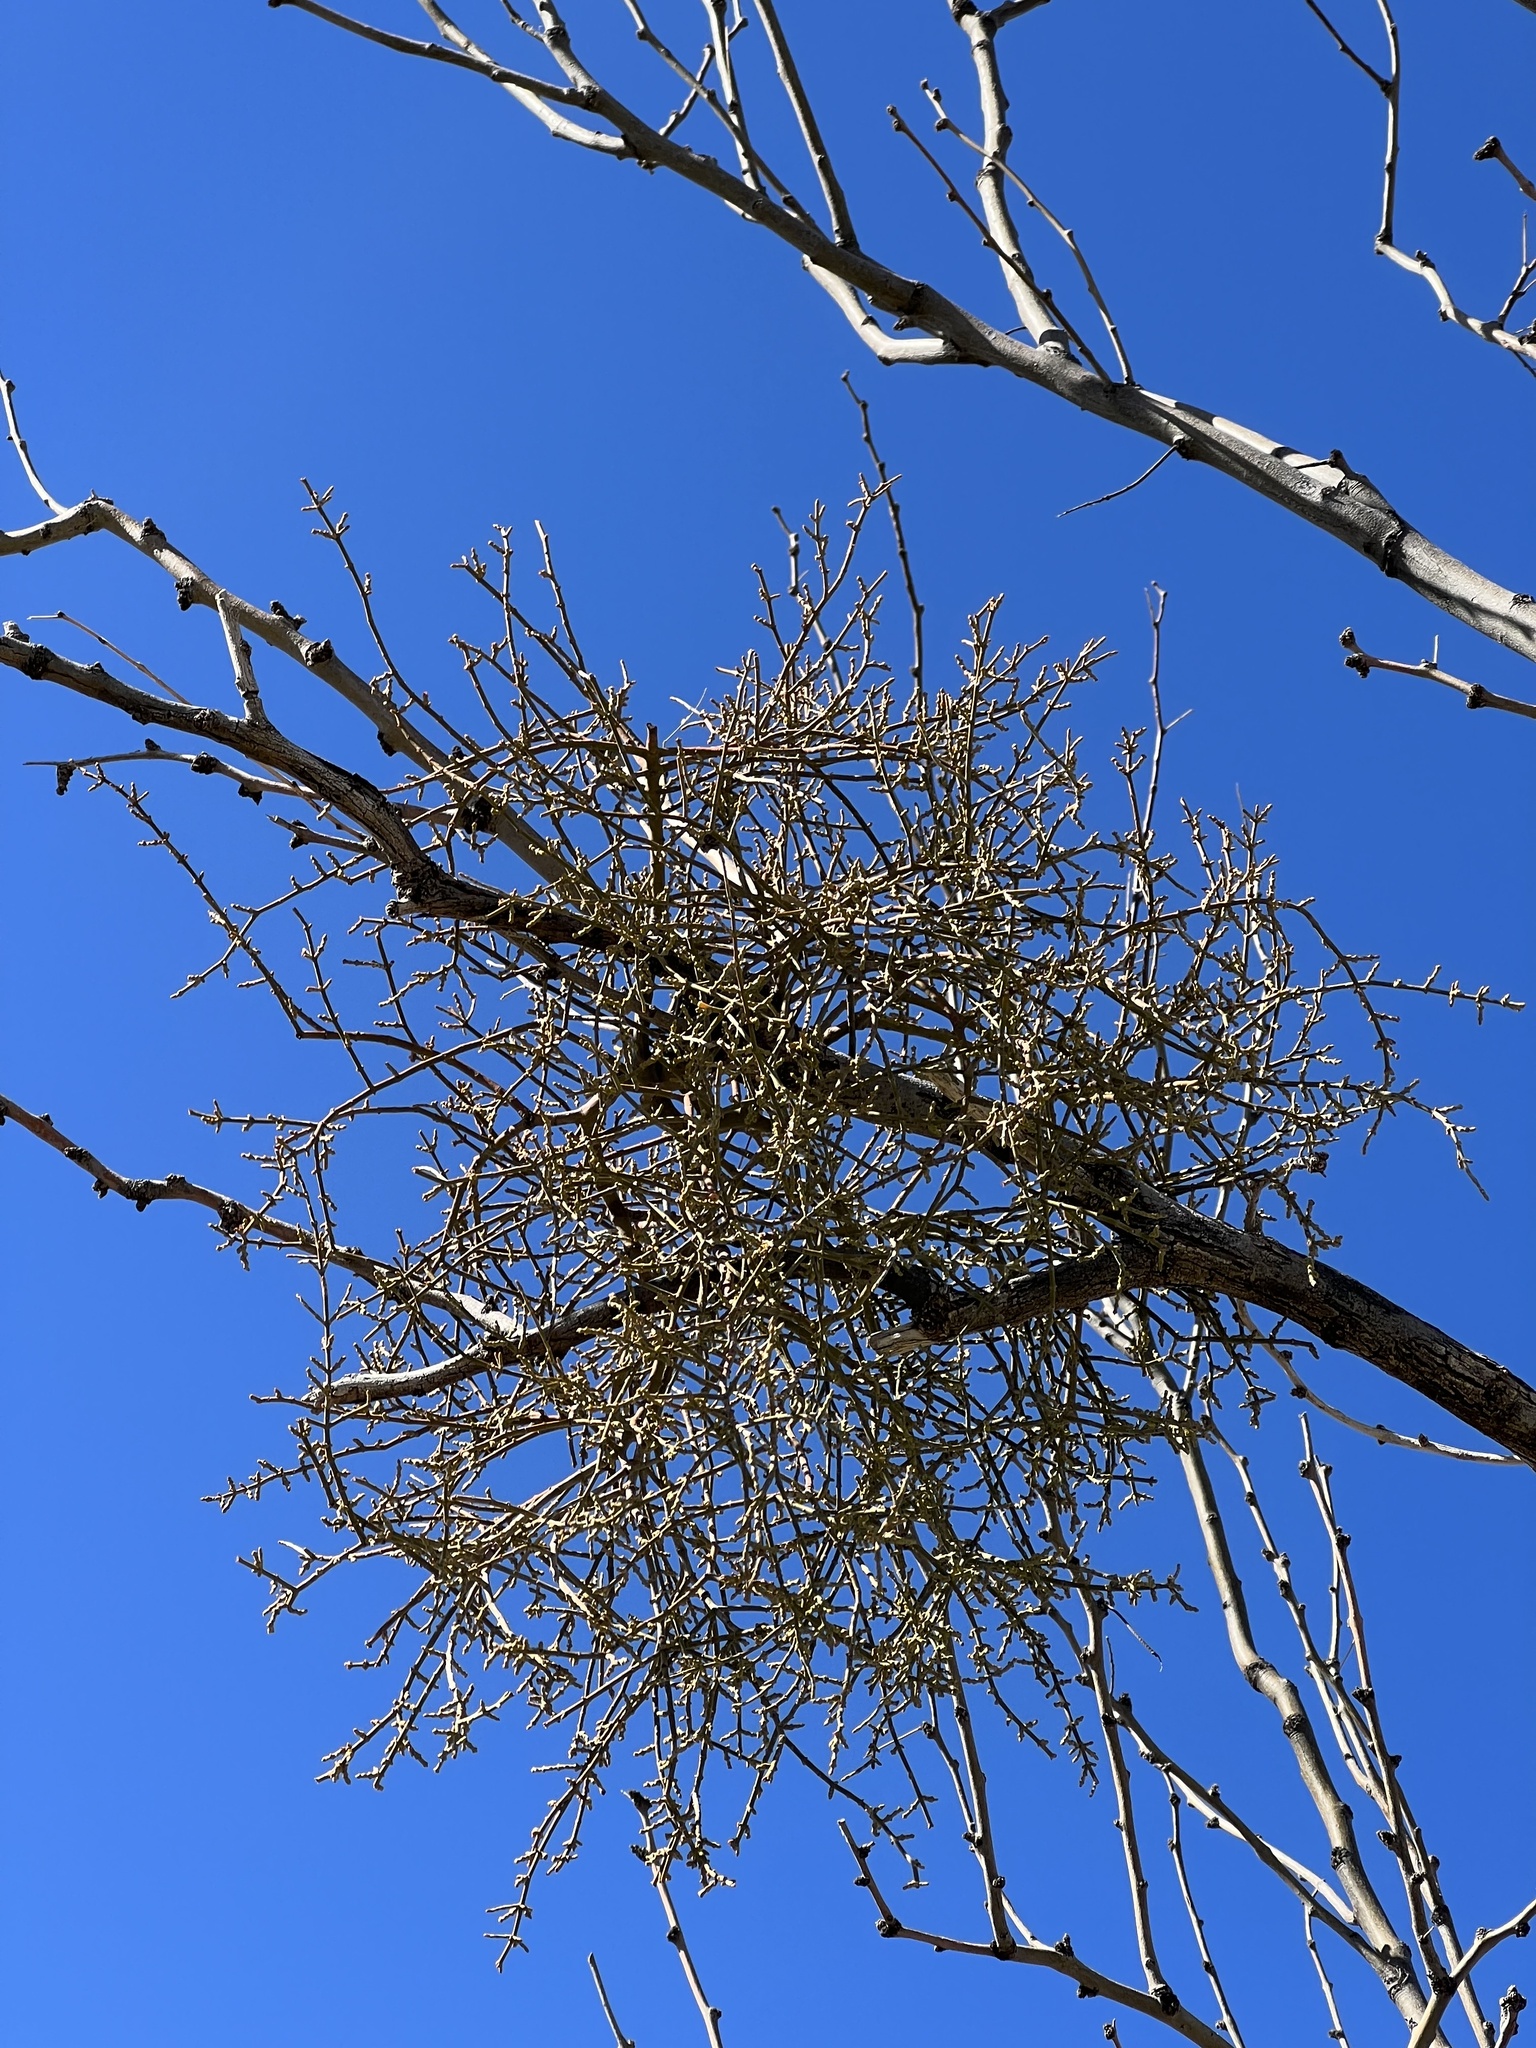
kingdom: Plantae
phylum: Tracheophyta
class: Magnoliopsida
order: Santalales
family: Viscaceae
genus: Phoradendron
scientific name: Phoradendron californicum
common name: Acacia mistletoe
